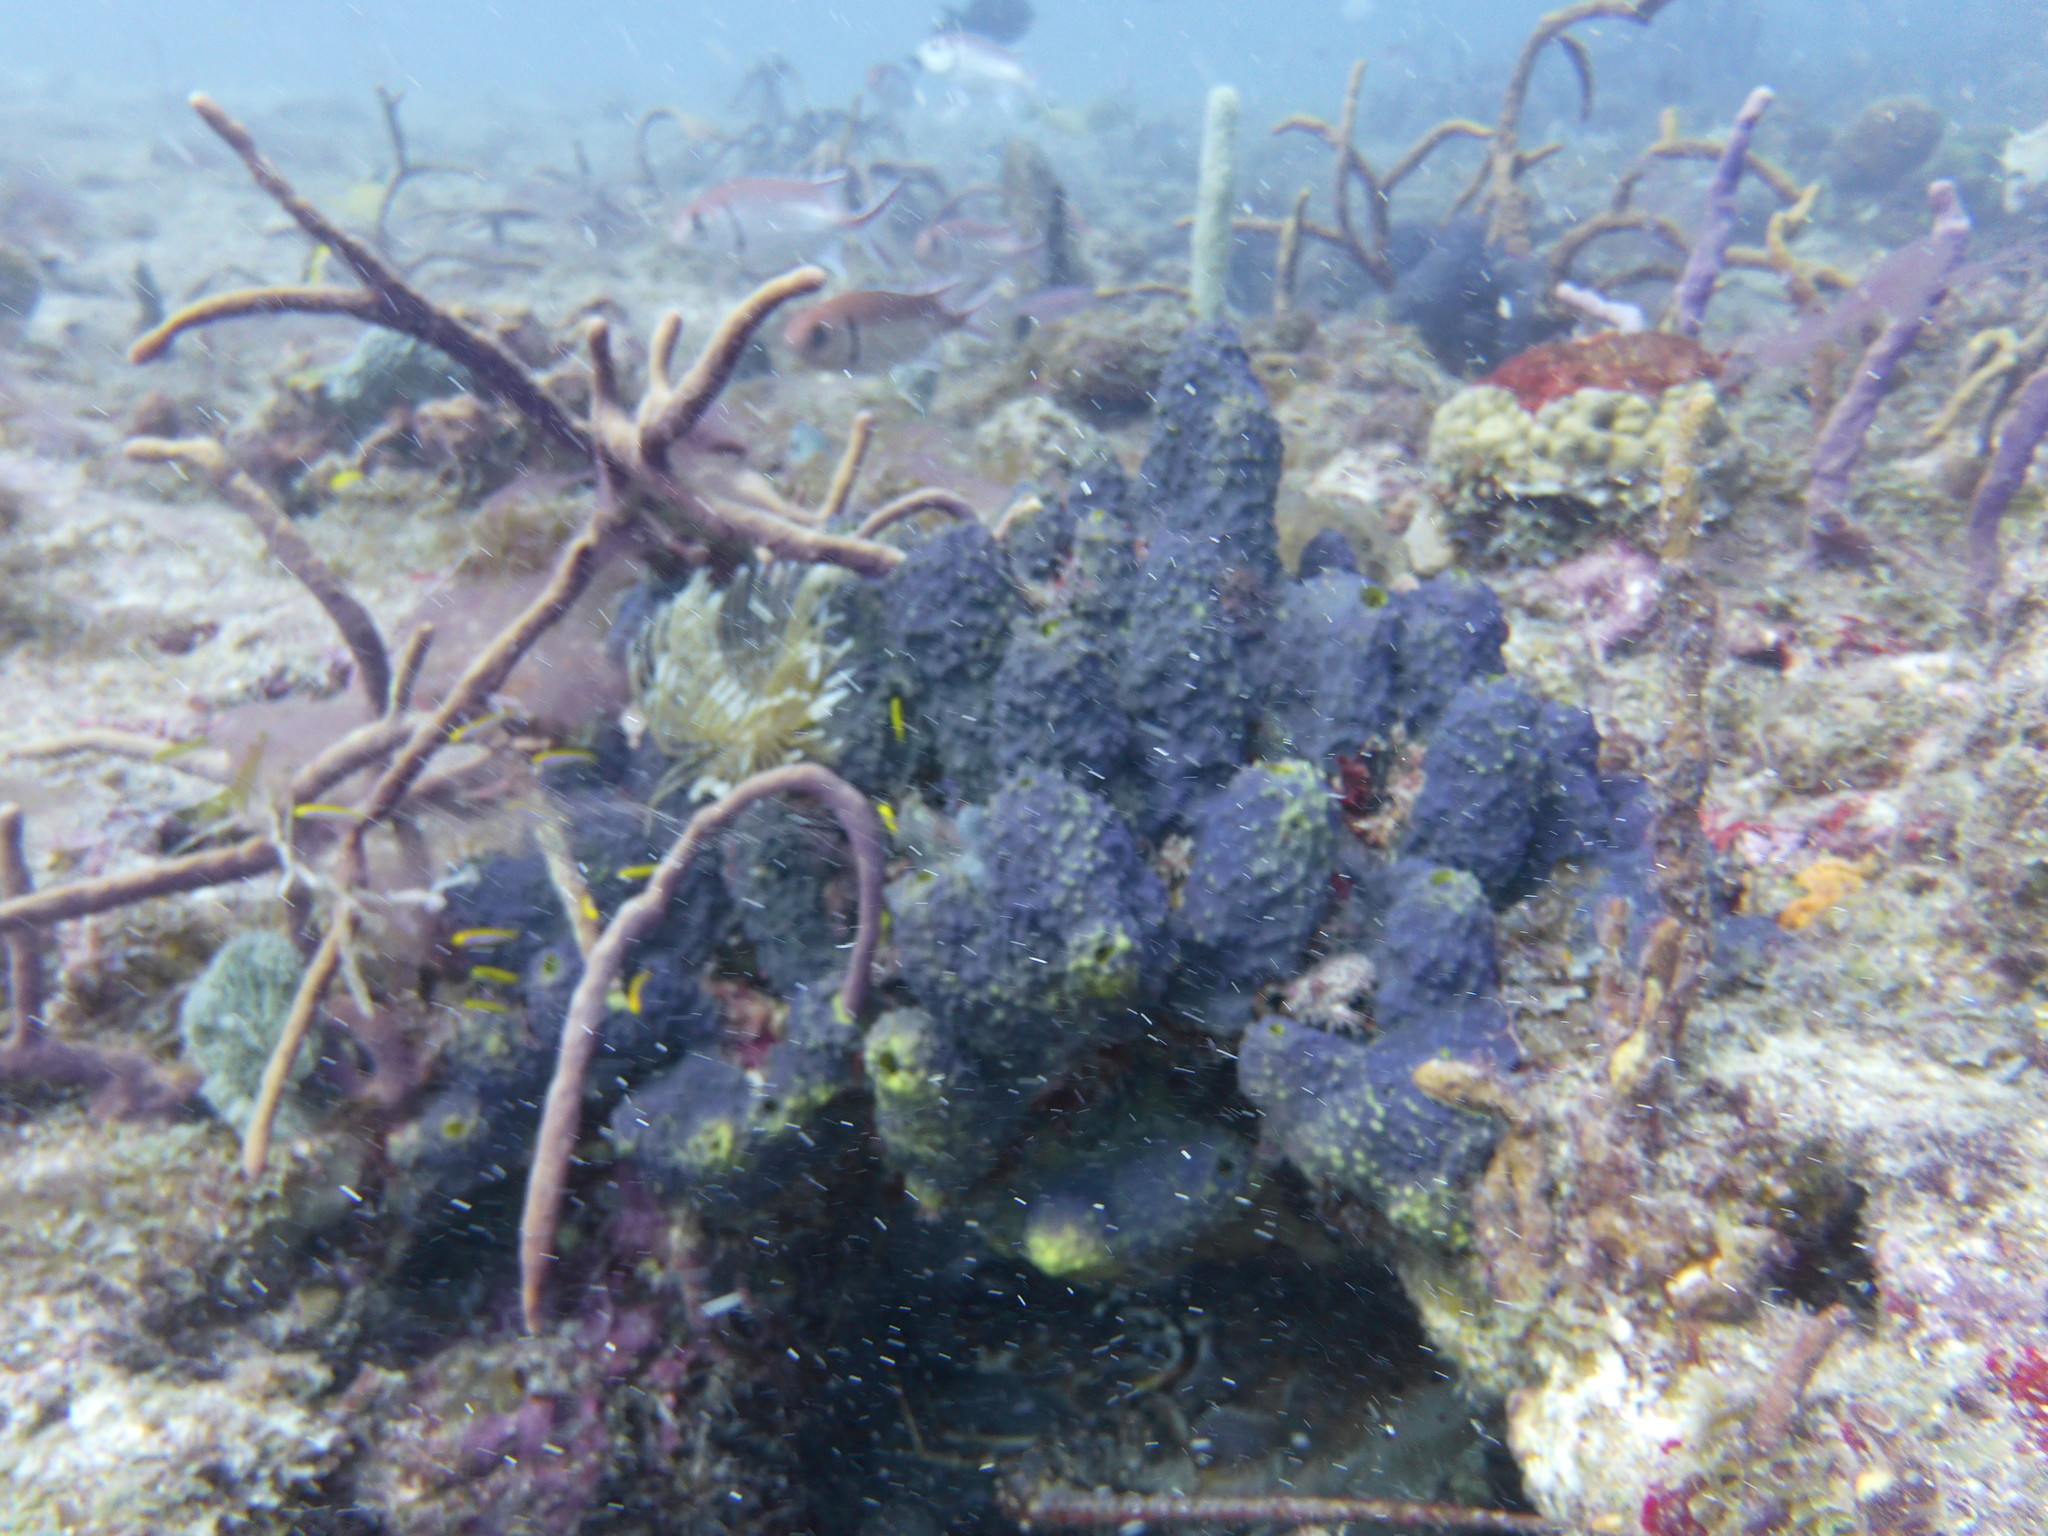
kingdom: Animalia
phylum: Porifera
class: Demospongiae
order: Verongiida
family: Aplysinidae
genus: Aiolochroia
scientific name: Aiolochroia crassa
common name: Branching tube sponge
